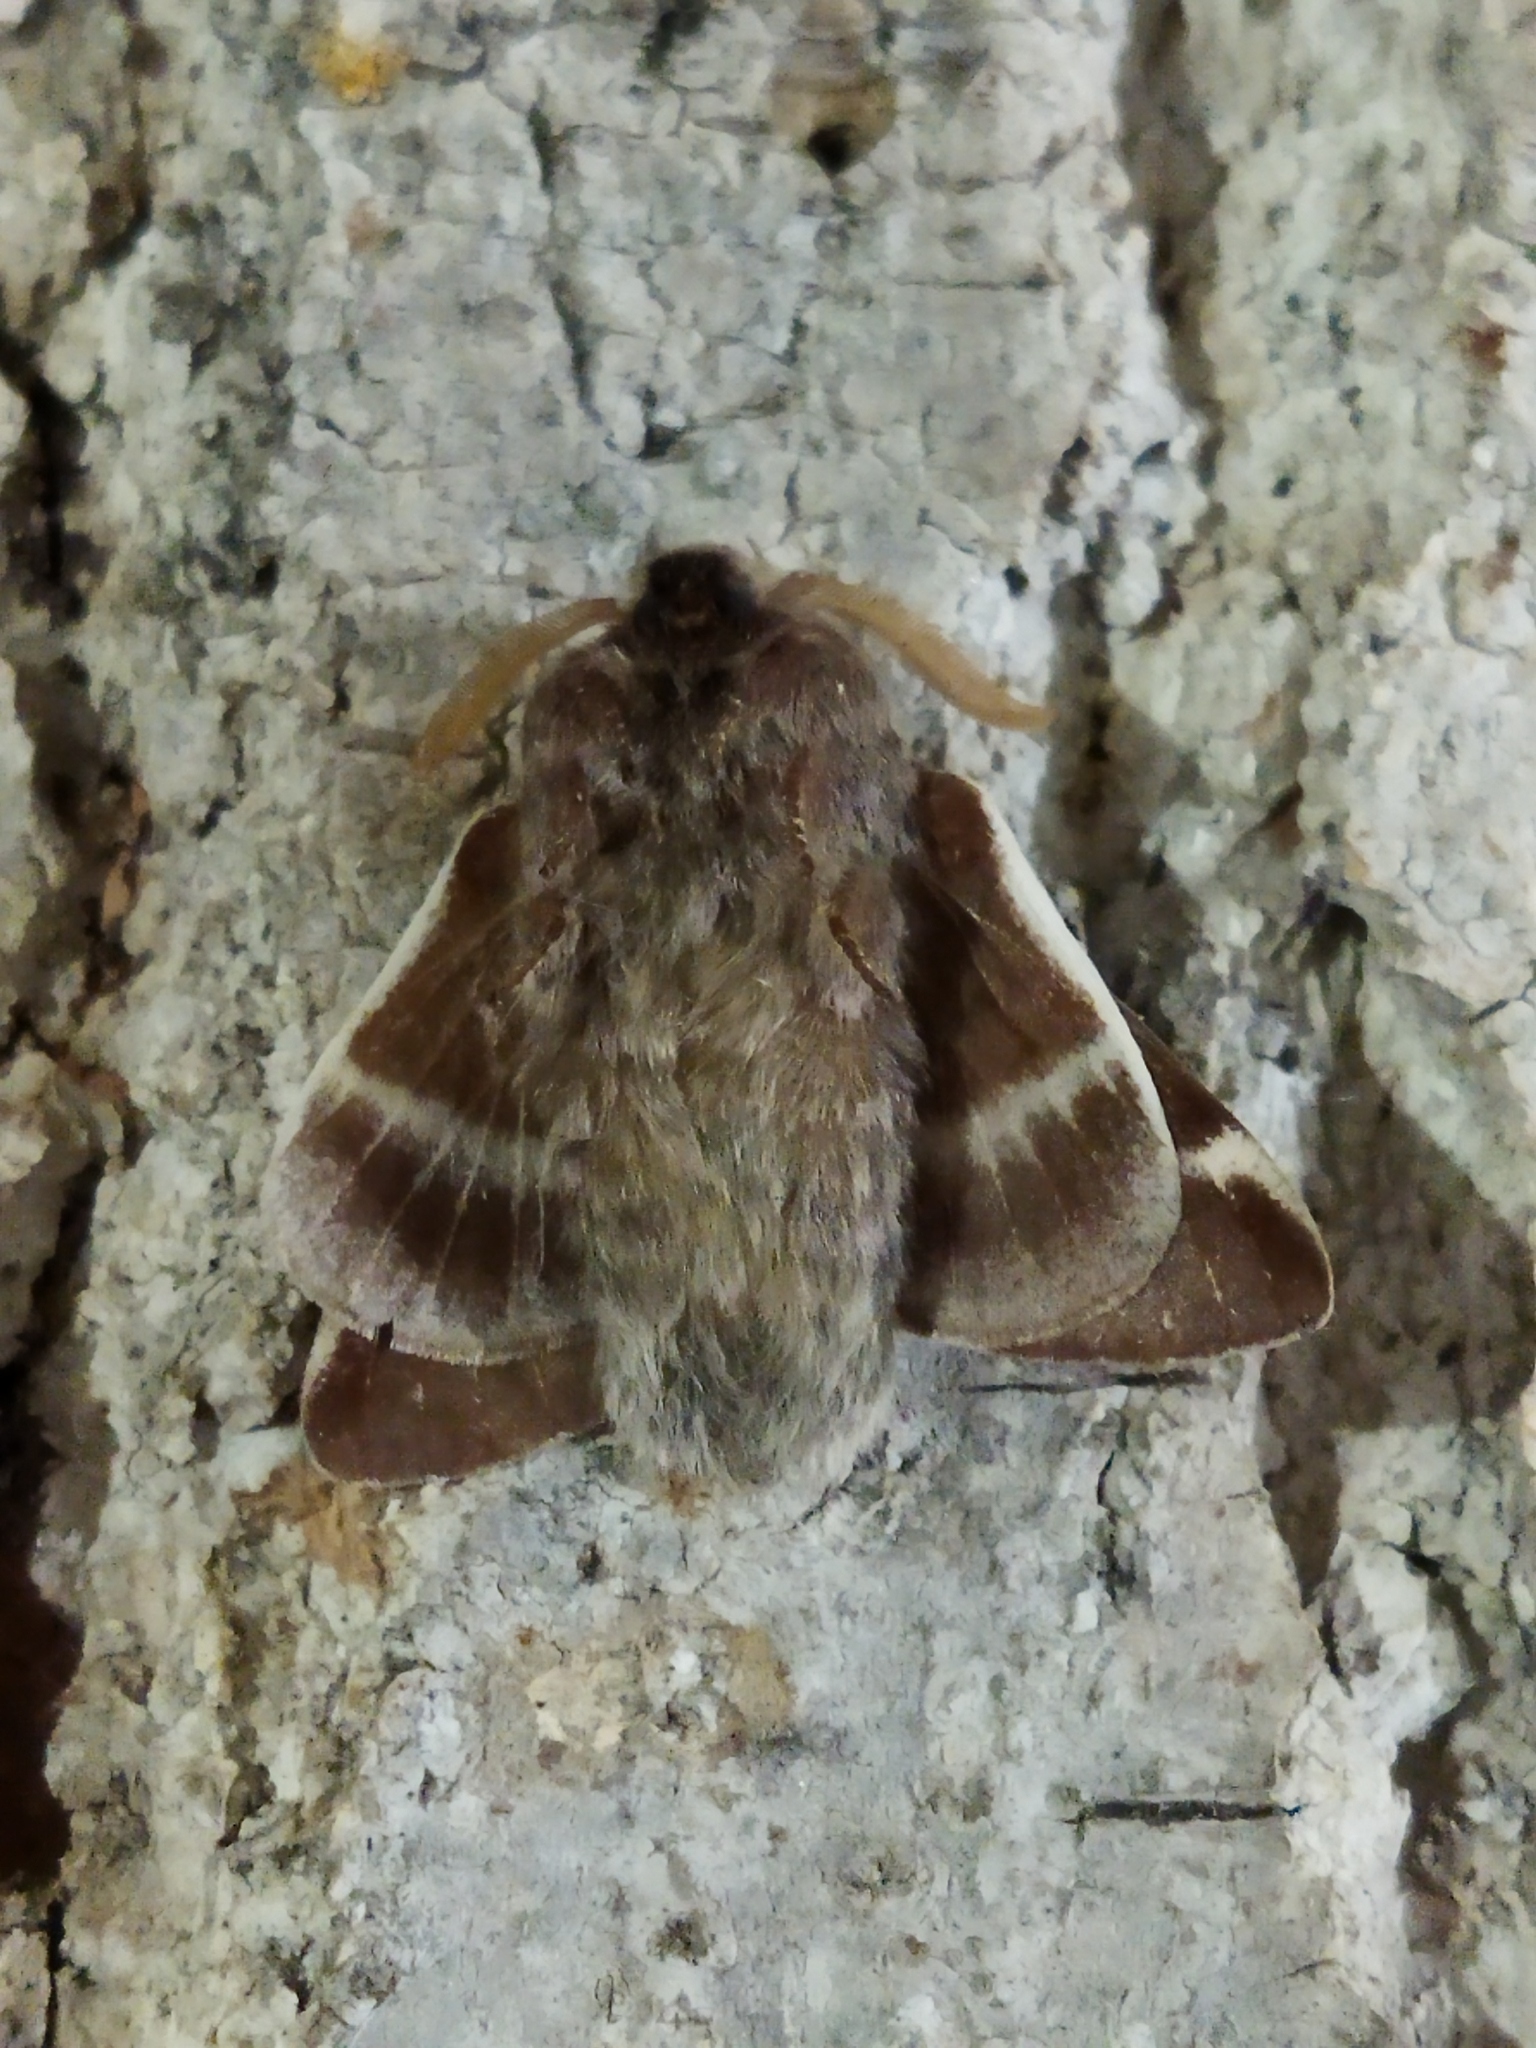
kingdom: Animalia
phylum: Arthropoda
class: Insecta
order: Lepidoptera
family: Lasiocampidae
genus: Eriogaster
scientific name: Eriogaster lanestris
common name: Small eggar
